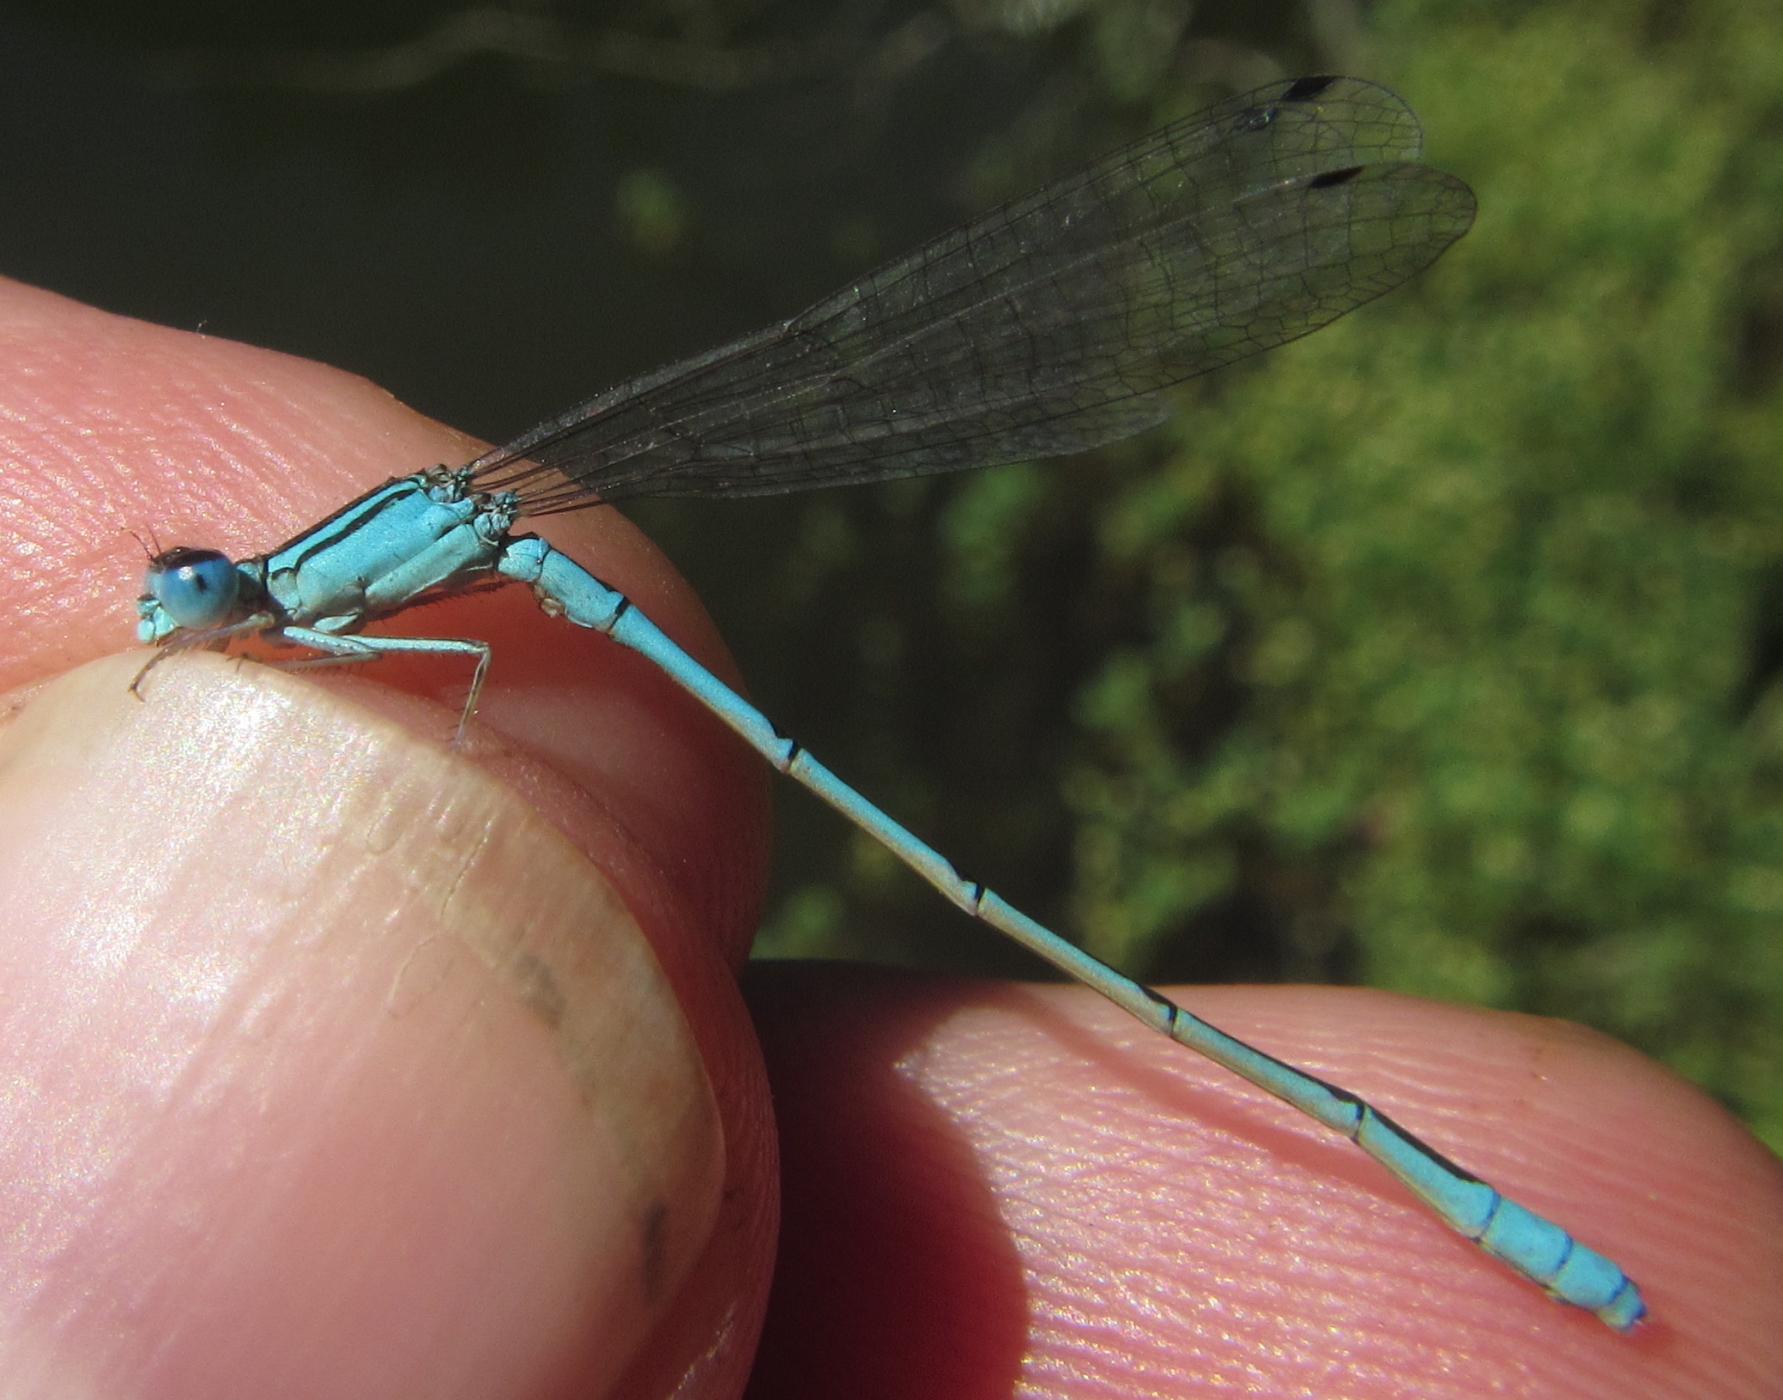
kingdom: Animalia
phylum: Arthropoda
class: Insecta
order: Odonata
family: Coenagrionidae
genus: Africallagma
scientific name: Africallagma glaucum
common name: Swamp bluet
